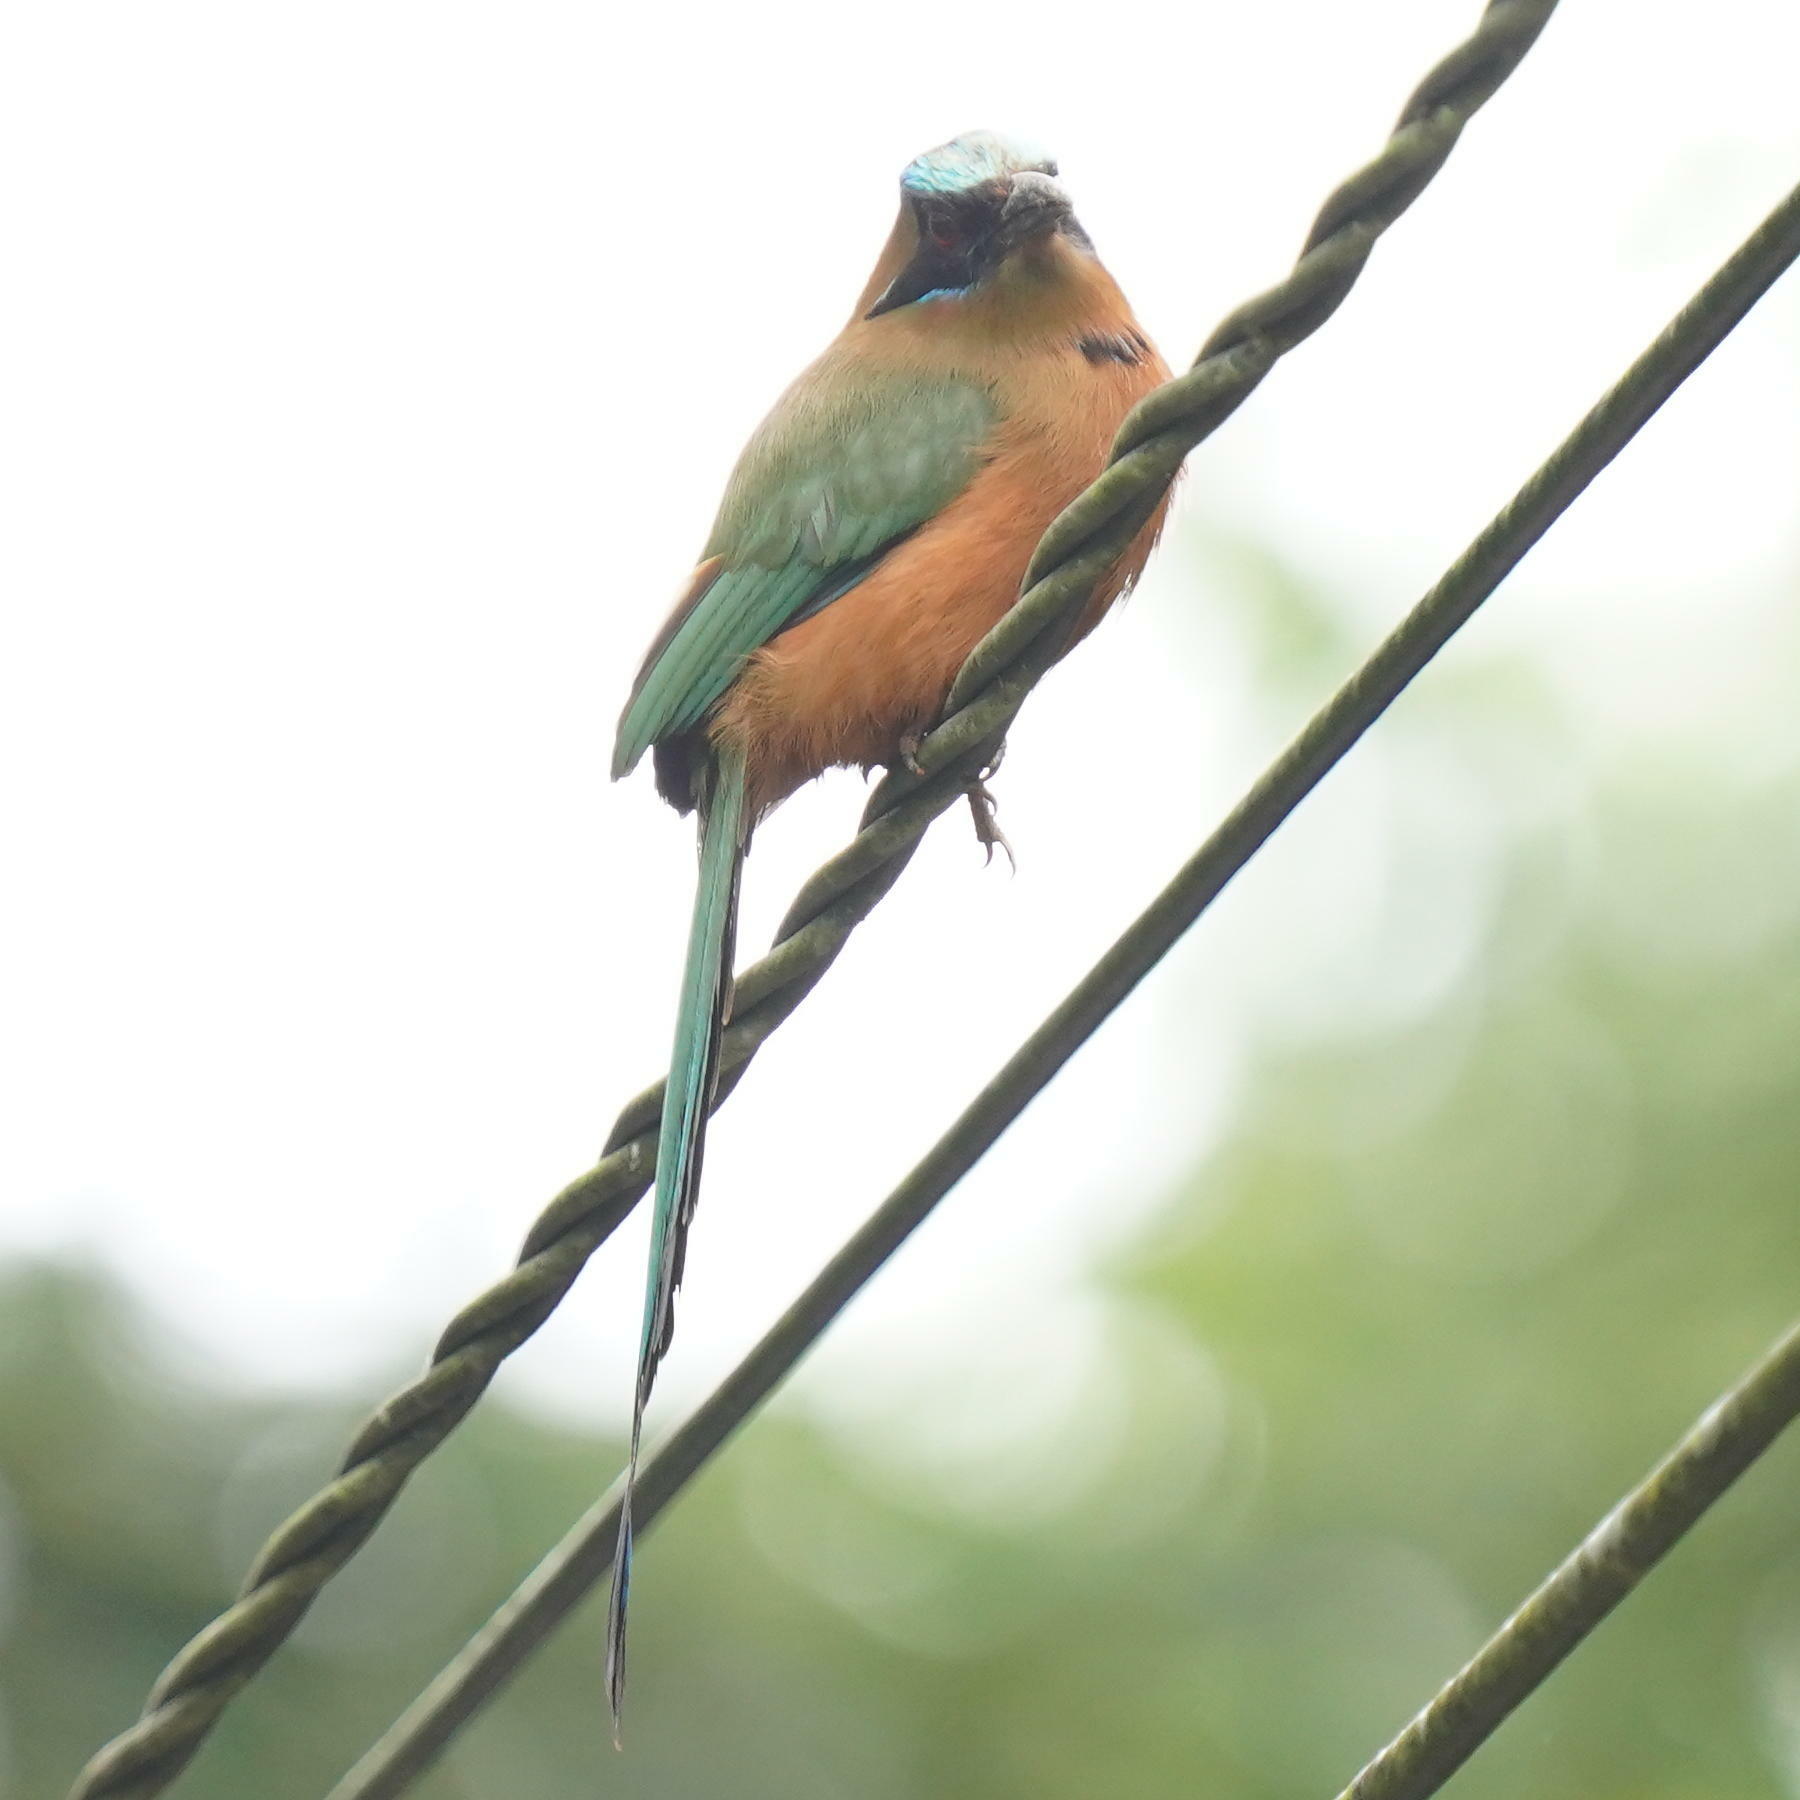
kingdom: Animalia
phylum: Chordata
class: Aves
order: Coraciiformes
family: Momotidae
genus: Momotus
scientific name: Momotus subrufescens
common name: Whooping motmot
